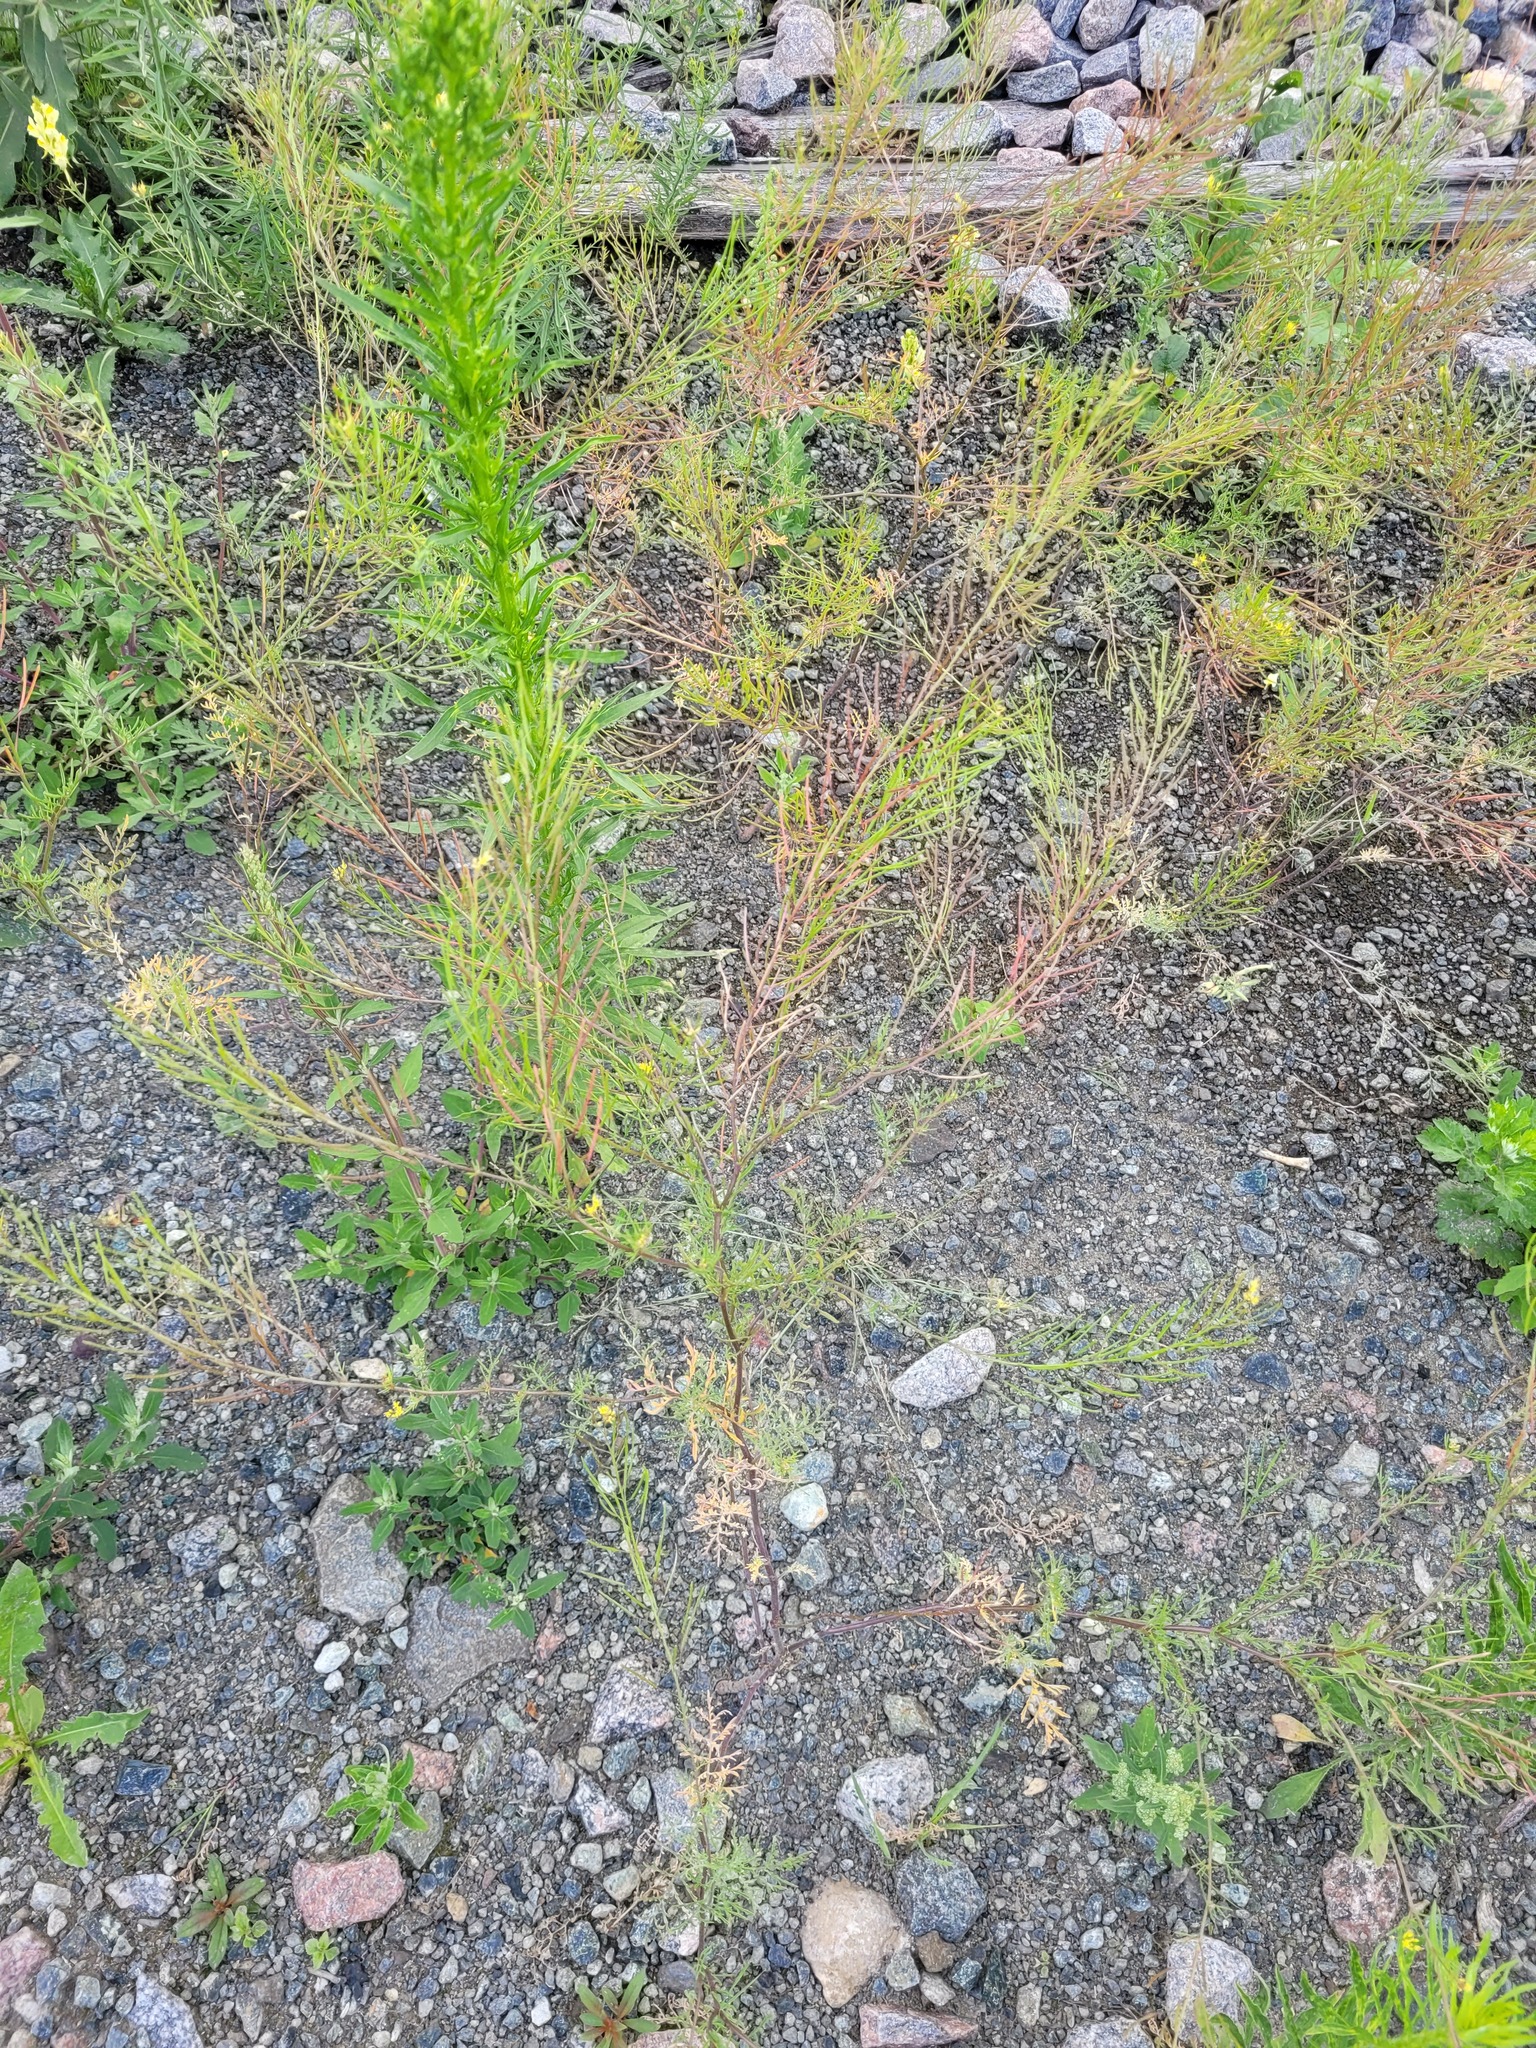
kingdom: Plantae
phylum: Tracheophyta
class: Magnoliopsida
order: Brassicales
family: Brassicaceae
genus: Descurainia
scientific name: Descurainia sophia
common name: Flixweed
